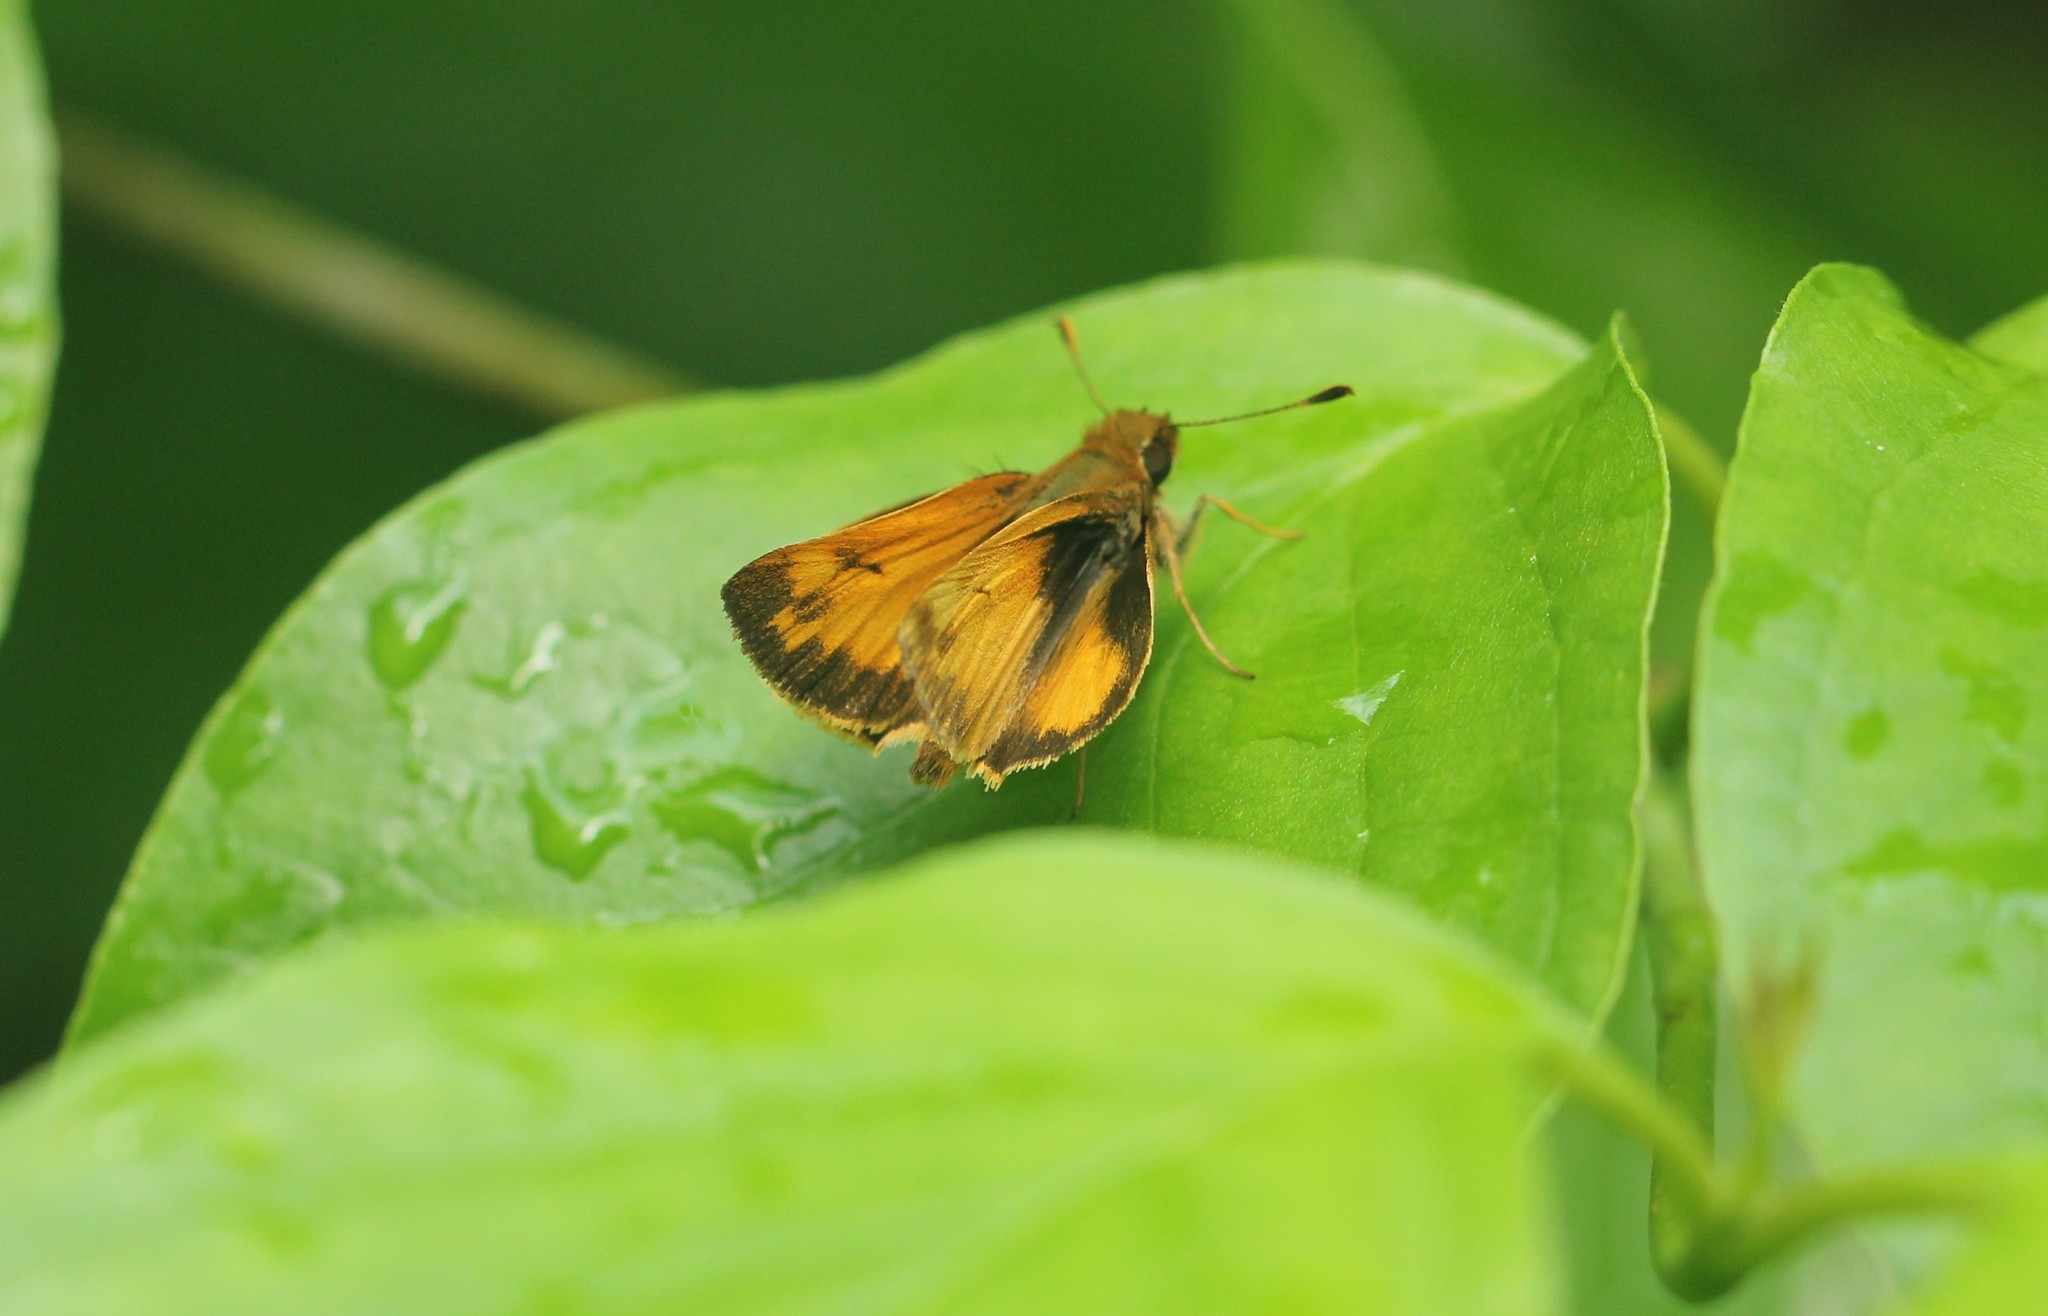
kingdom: Animalia
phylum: Arthropoda
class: Insecta
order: Lepidoptera
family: Hesperiidae
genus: Lon
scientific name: Lon zabulon
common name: Zabulon skipper
